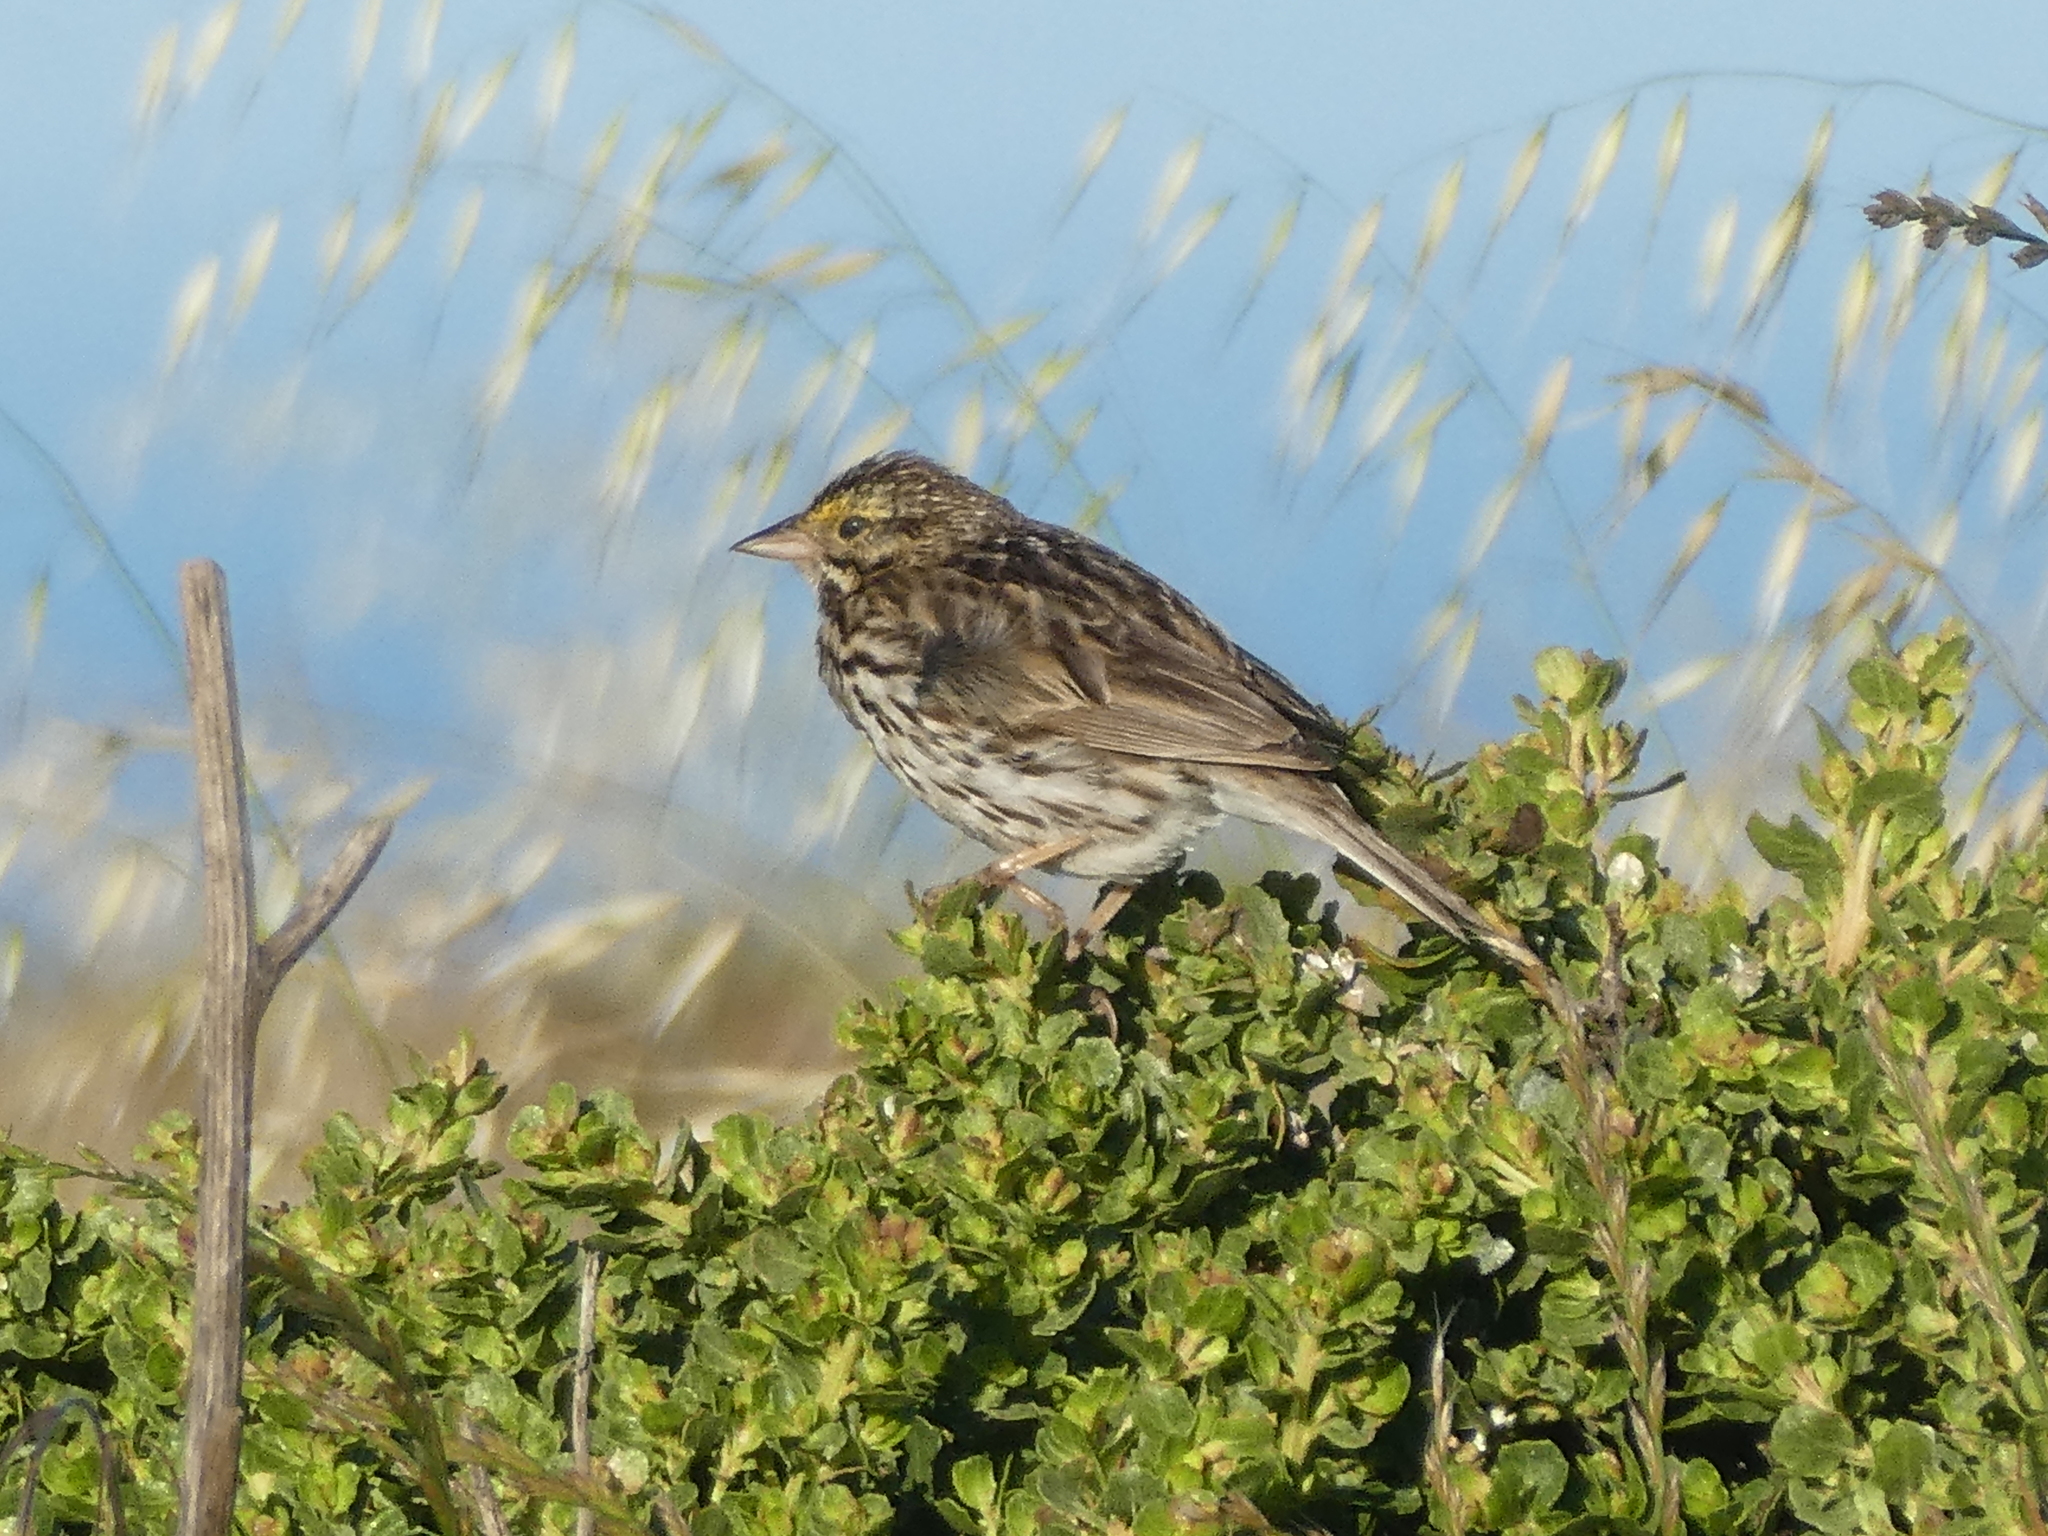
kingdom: Animalia
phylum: Chordata
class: Aves
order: Passeriformes
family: Passerellidae
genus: Passerculus
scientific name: Passerculus sandwichensis
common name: Savannah sparrow
